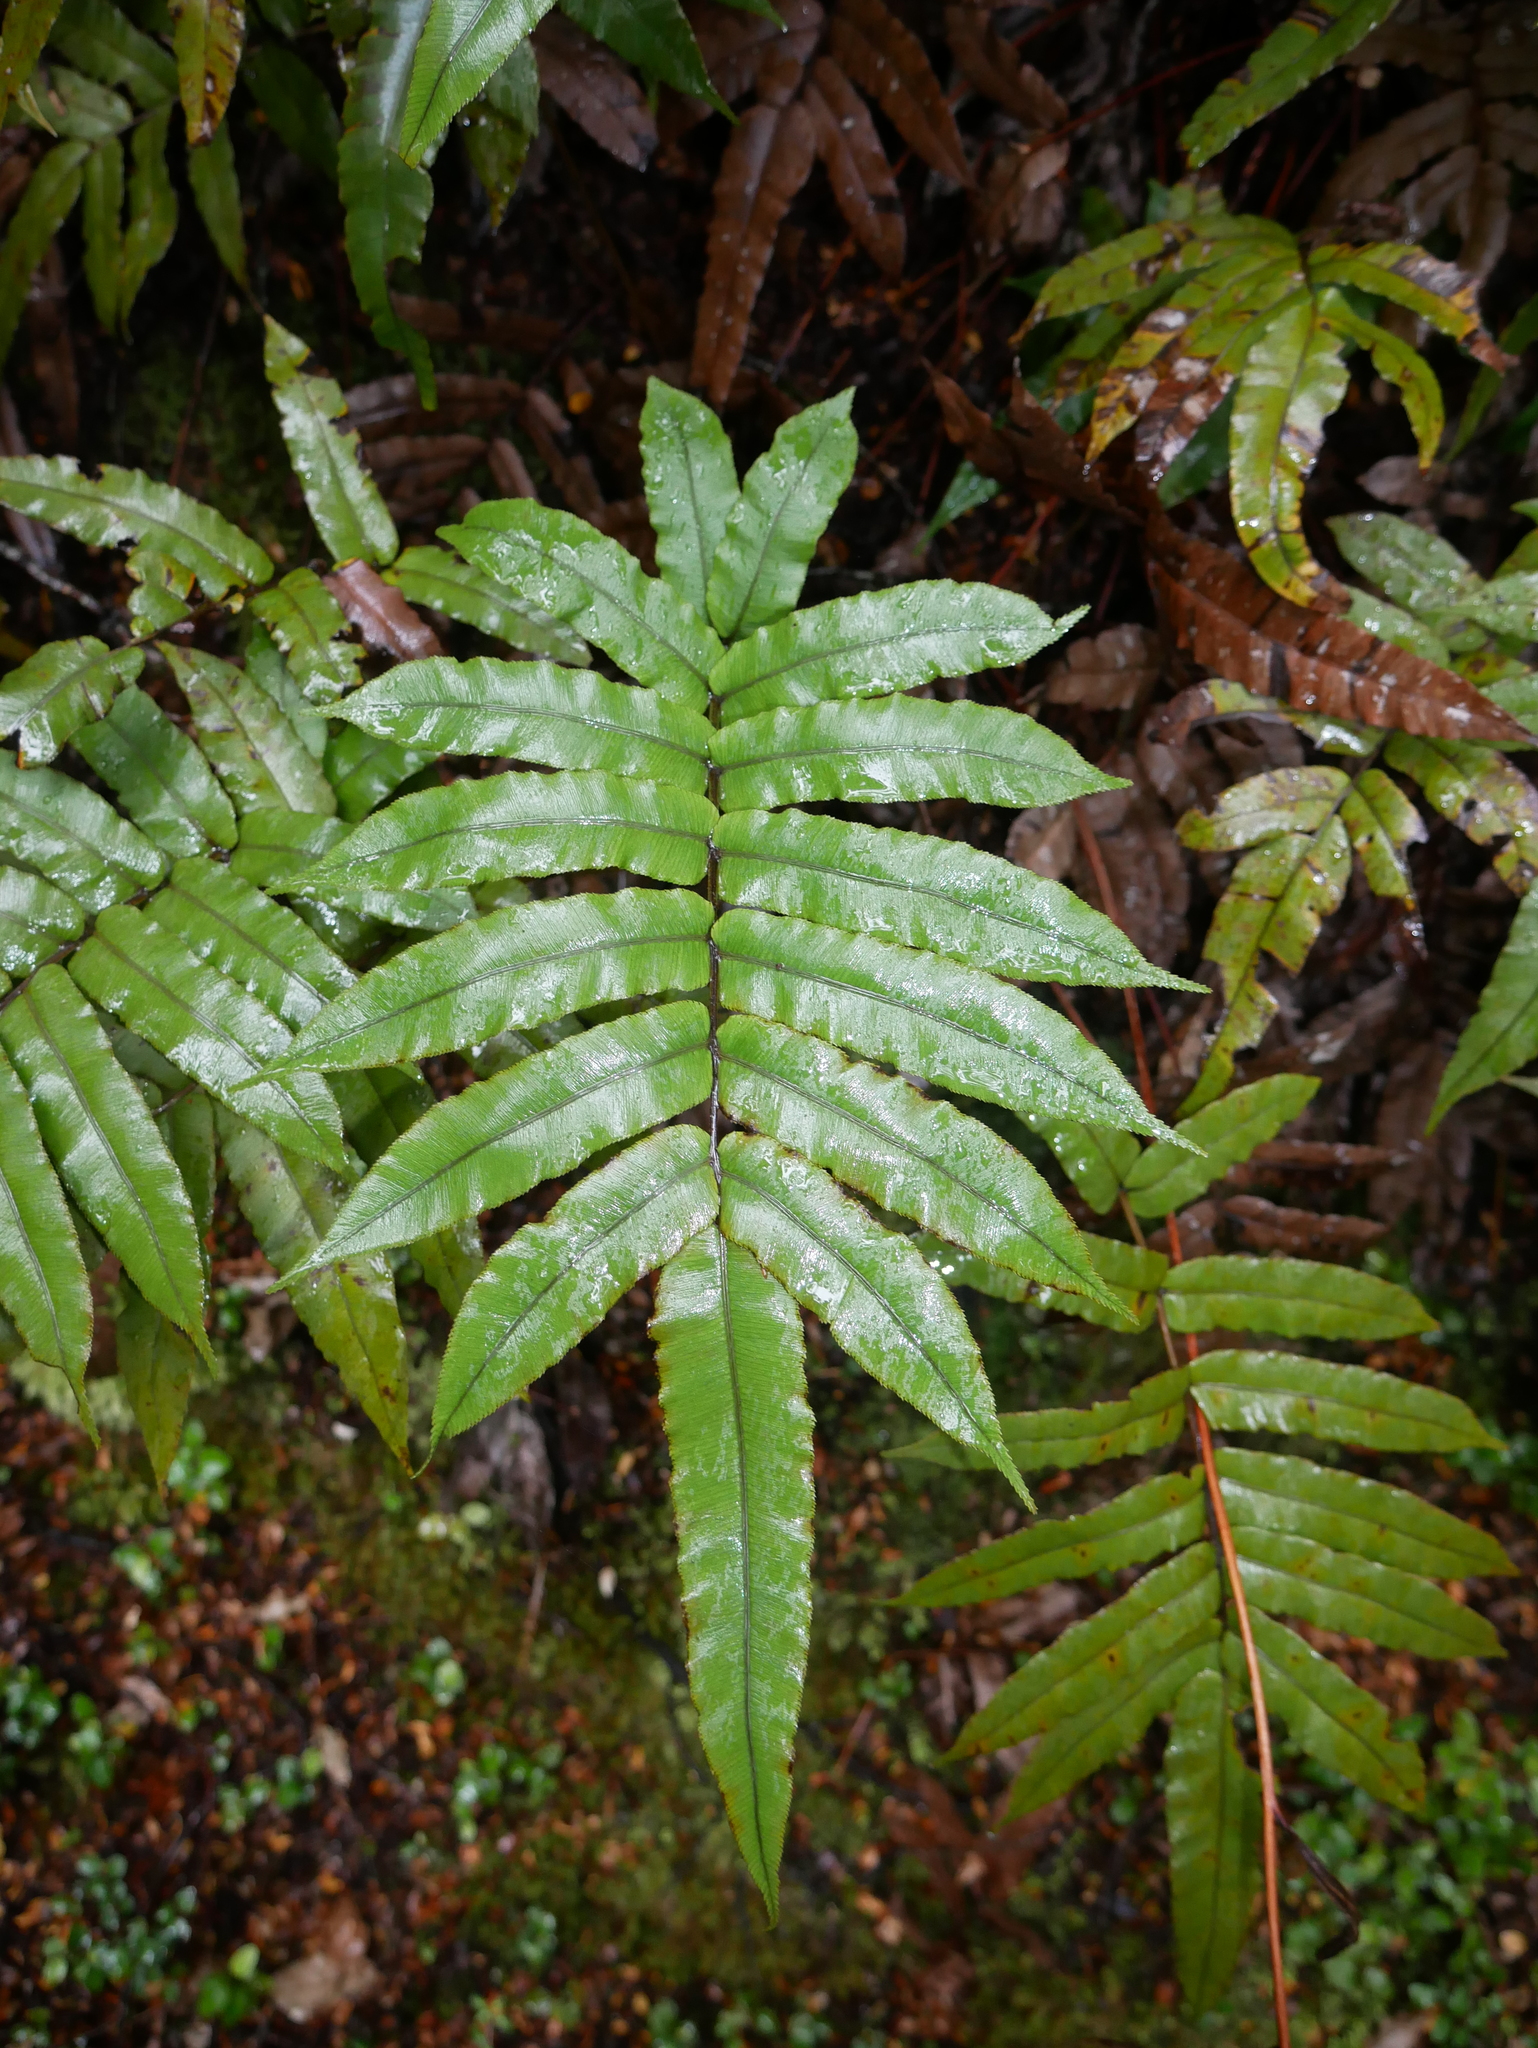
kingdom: Plantae
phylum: Tracheophyta
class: Polypodiopsida
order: Polypodiales
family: Blechnaceae
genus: Parablechnum
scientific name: Parablechnum procerum
